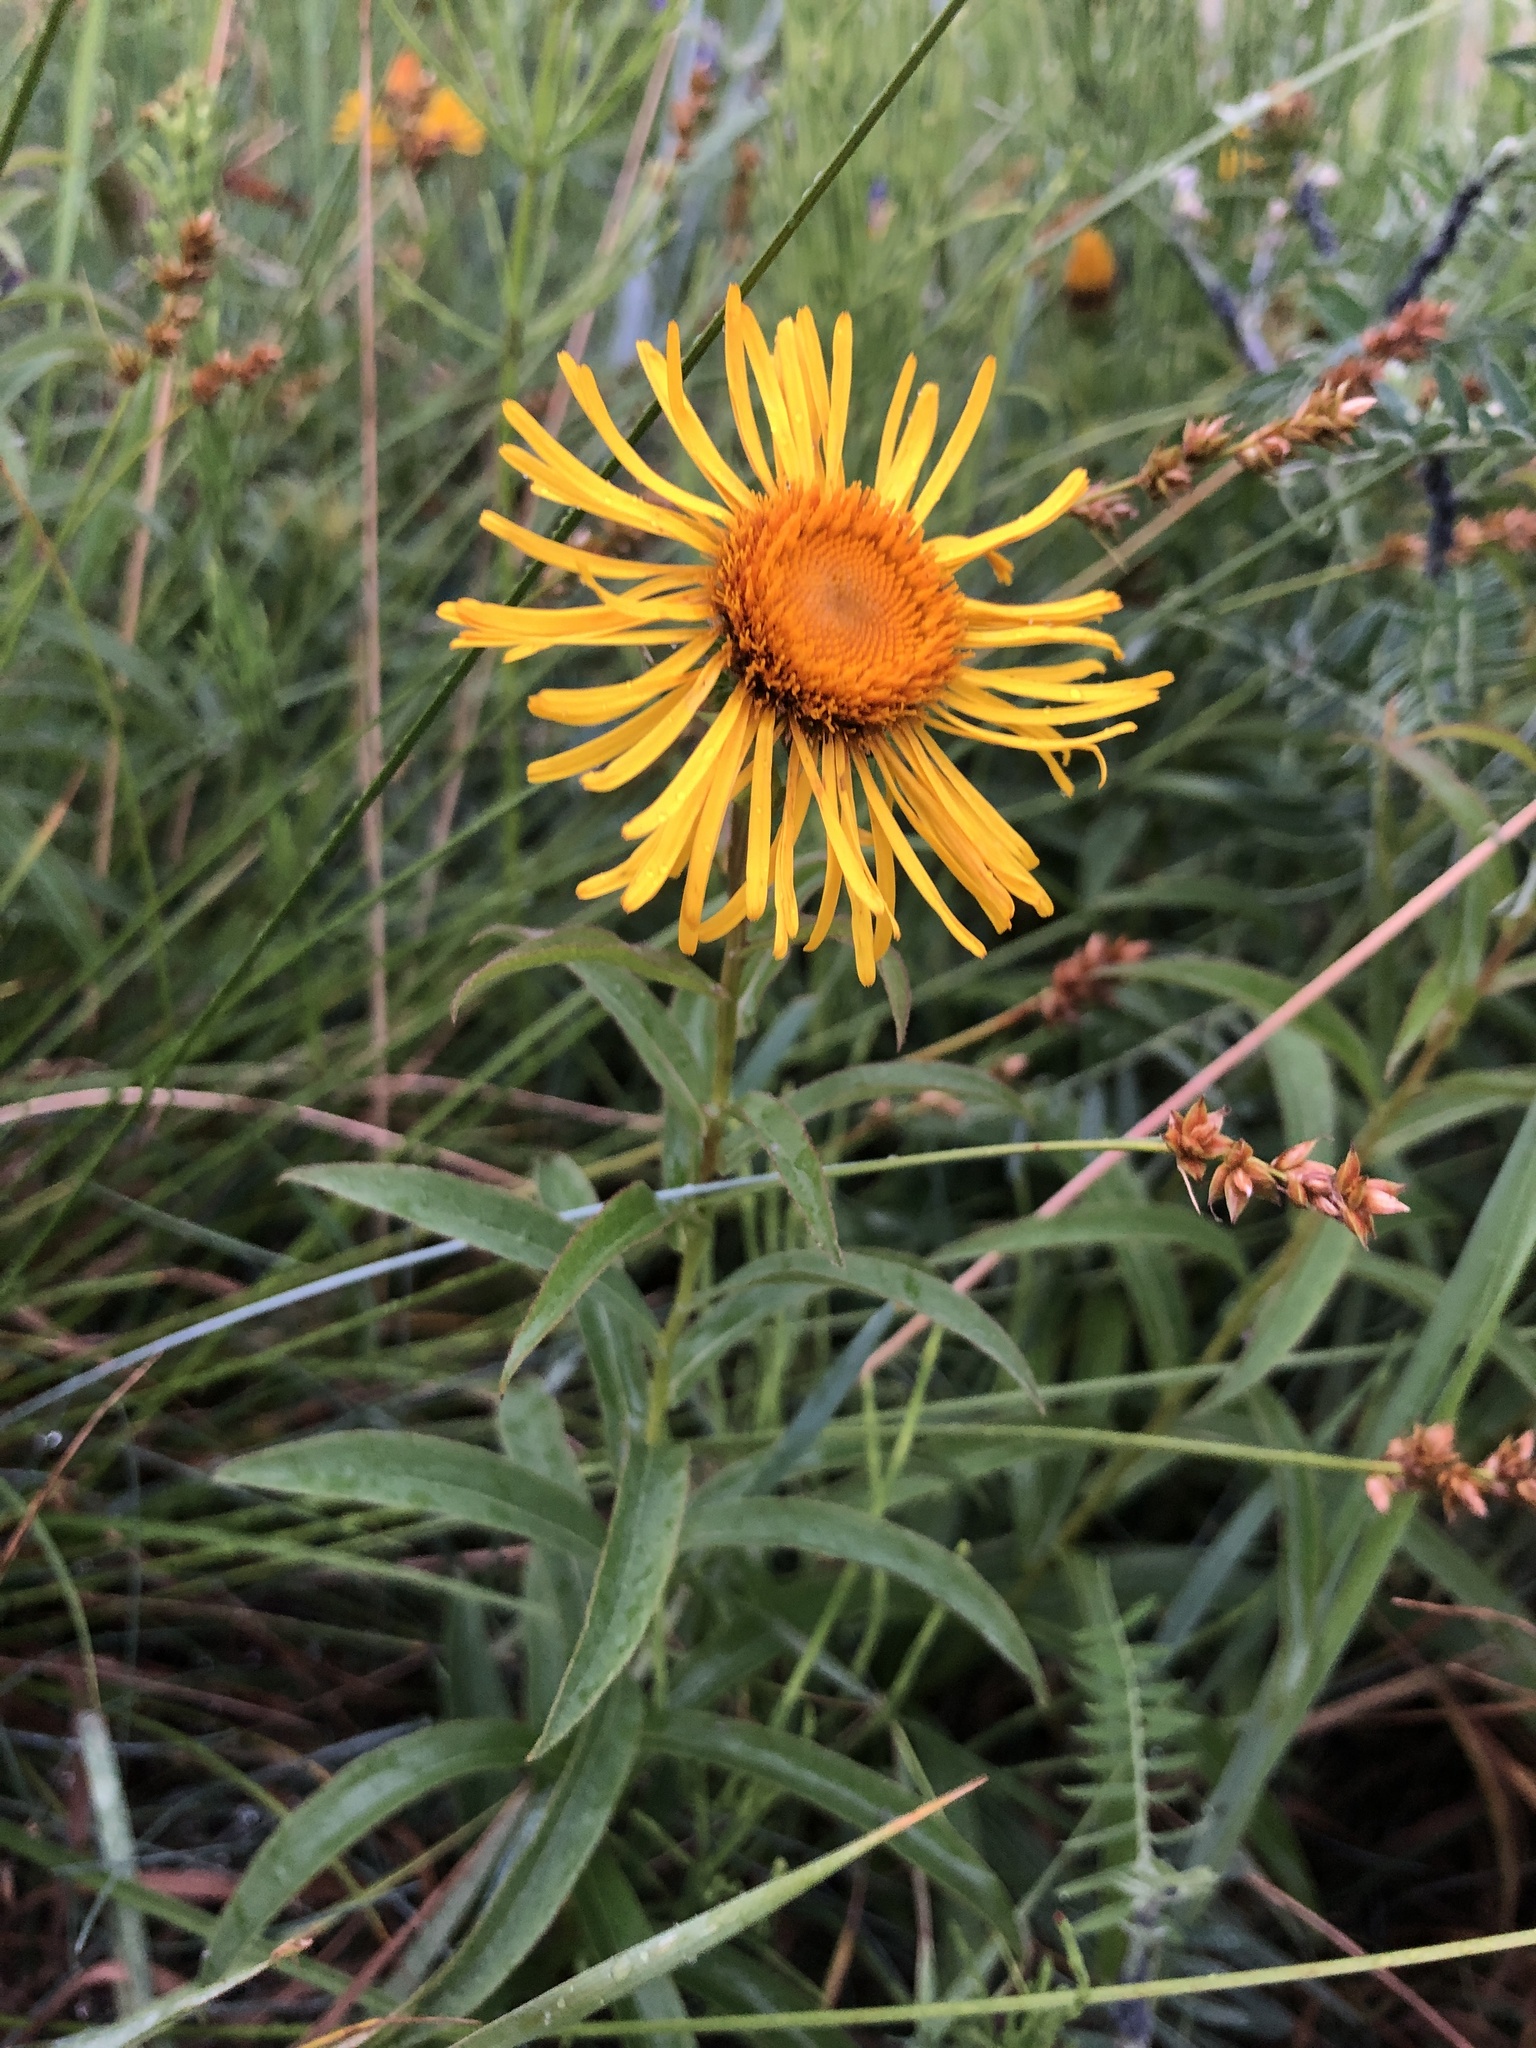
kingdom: Plantae
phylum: Tracheophyta
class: Magnoliopsida
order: Asterales
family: Asteraceae
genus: Pentanema
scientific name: Pentanema salicinum
